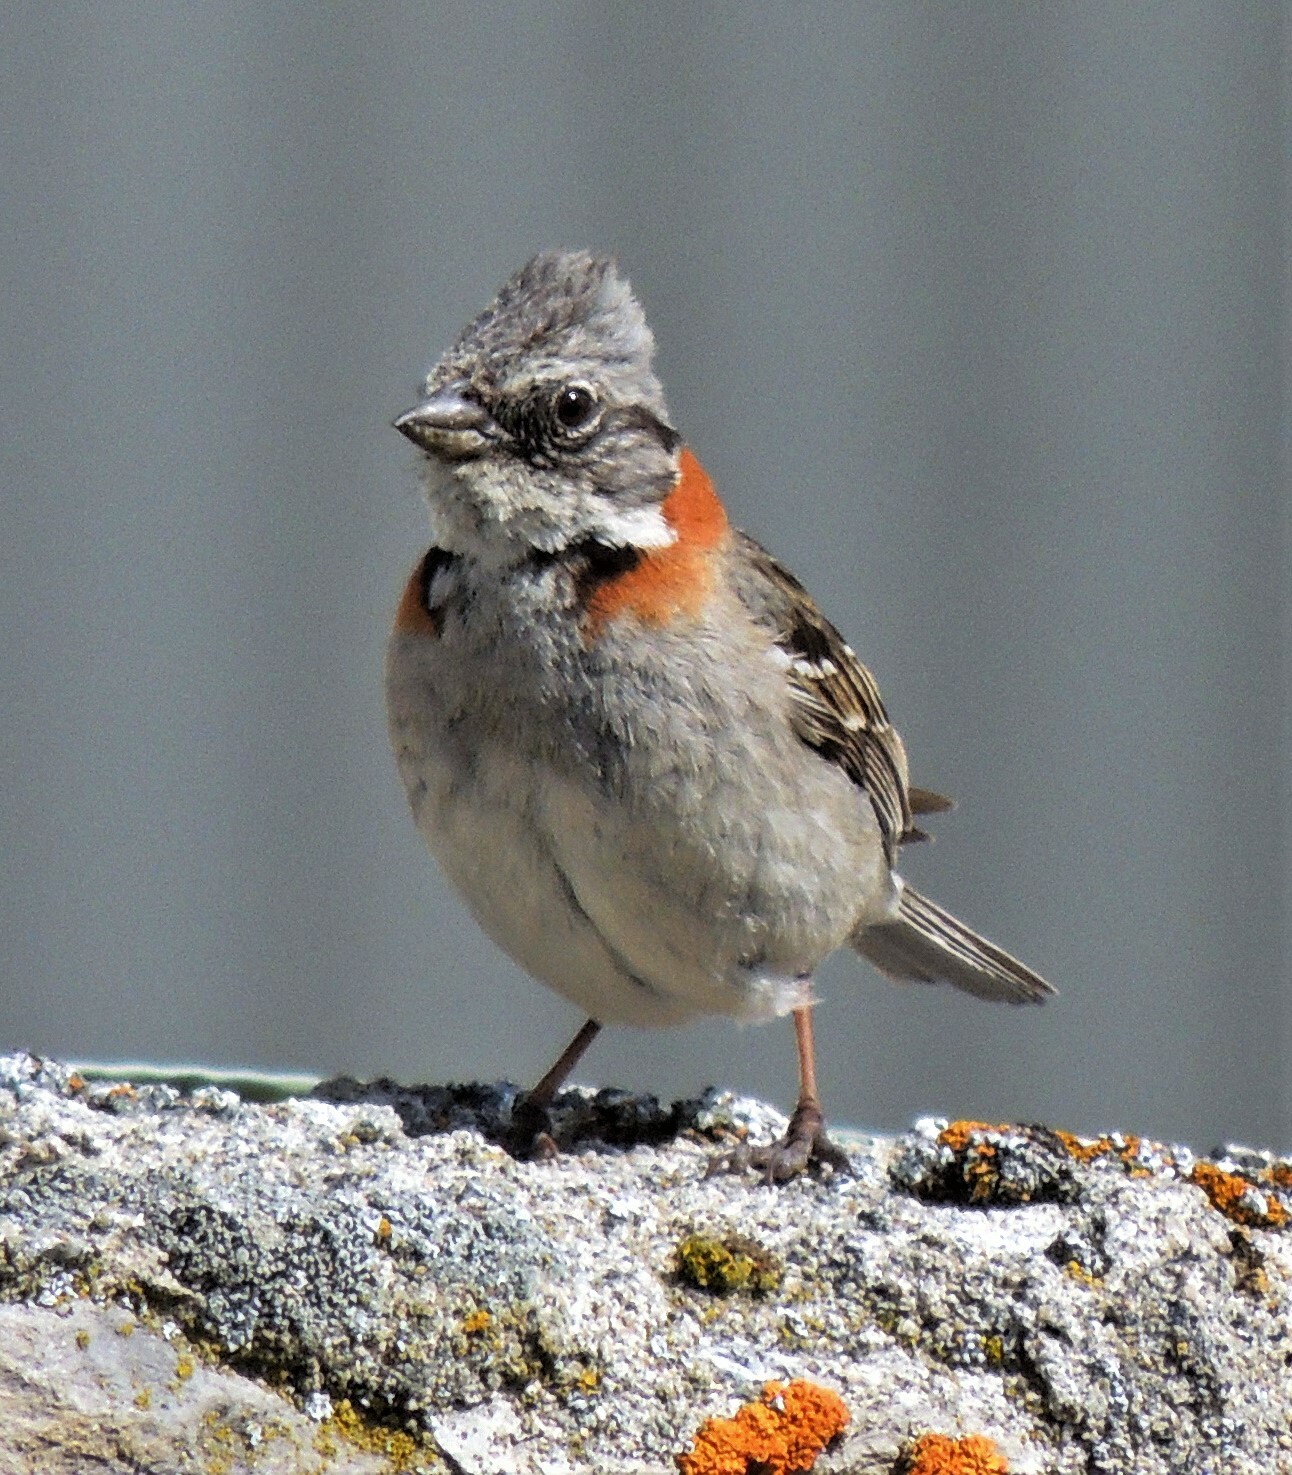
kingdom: Animalia
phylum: Chordata
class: Aves
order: Passeriformes
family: Passerellidae
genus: Zonotrichia
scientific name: Zonotrichia capensis
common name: Rufous-collared sparrow
